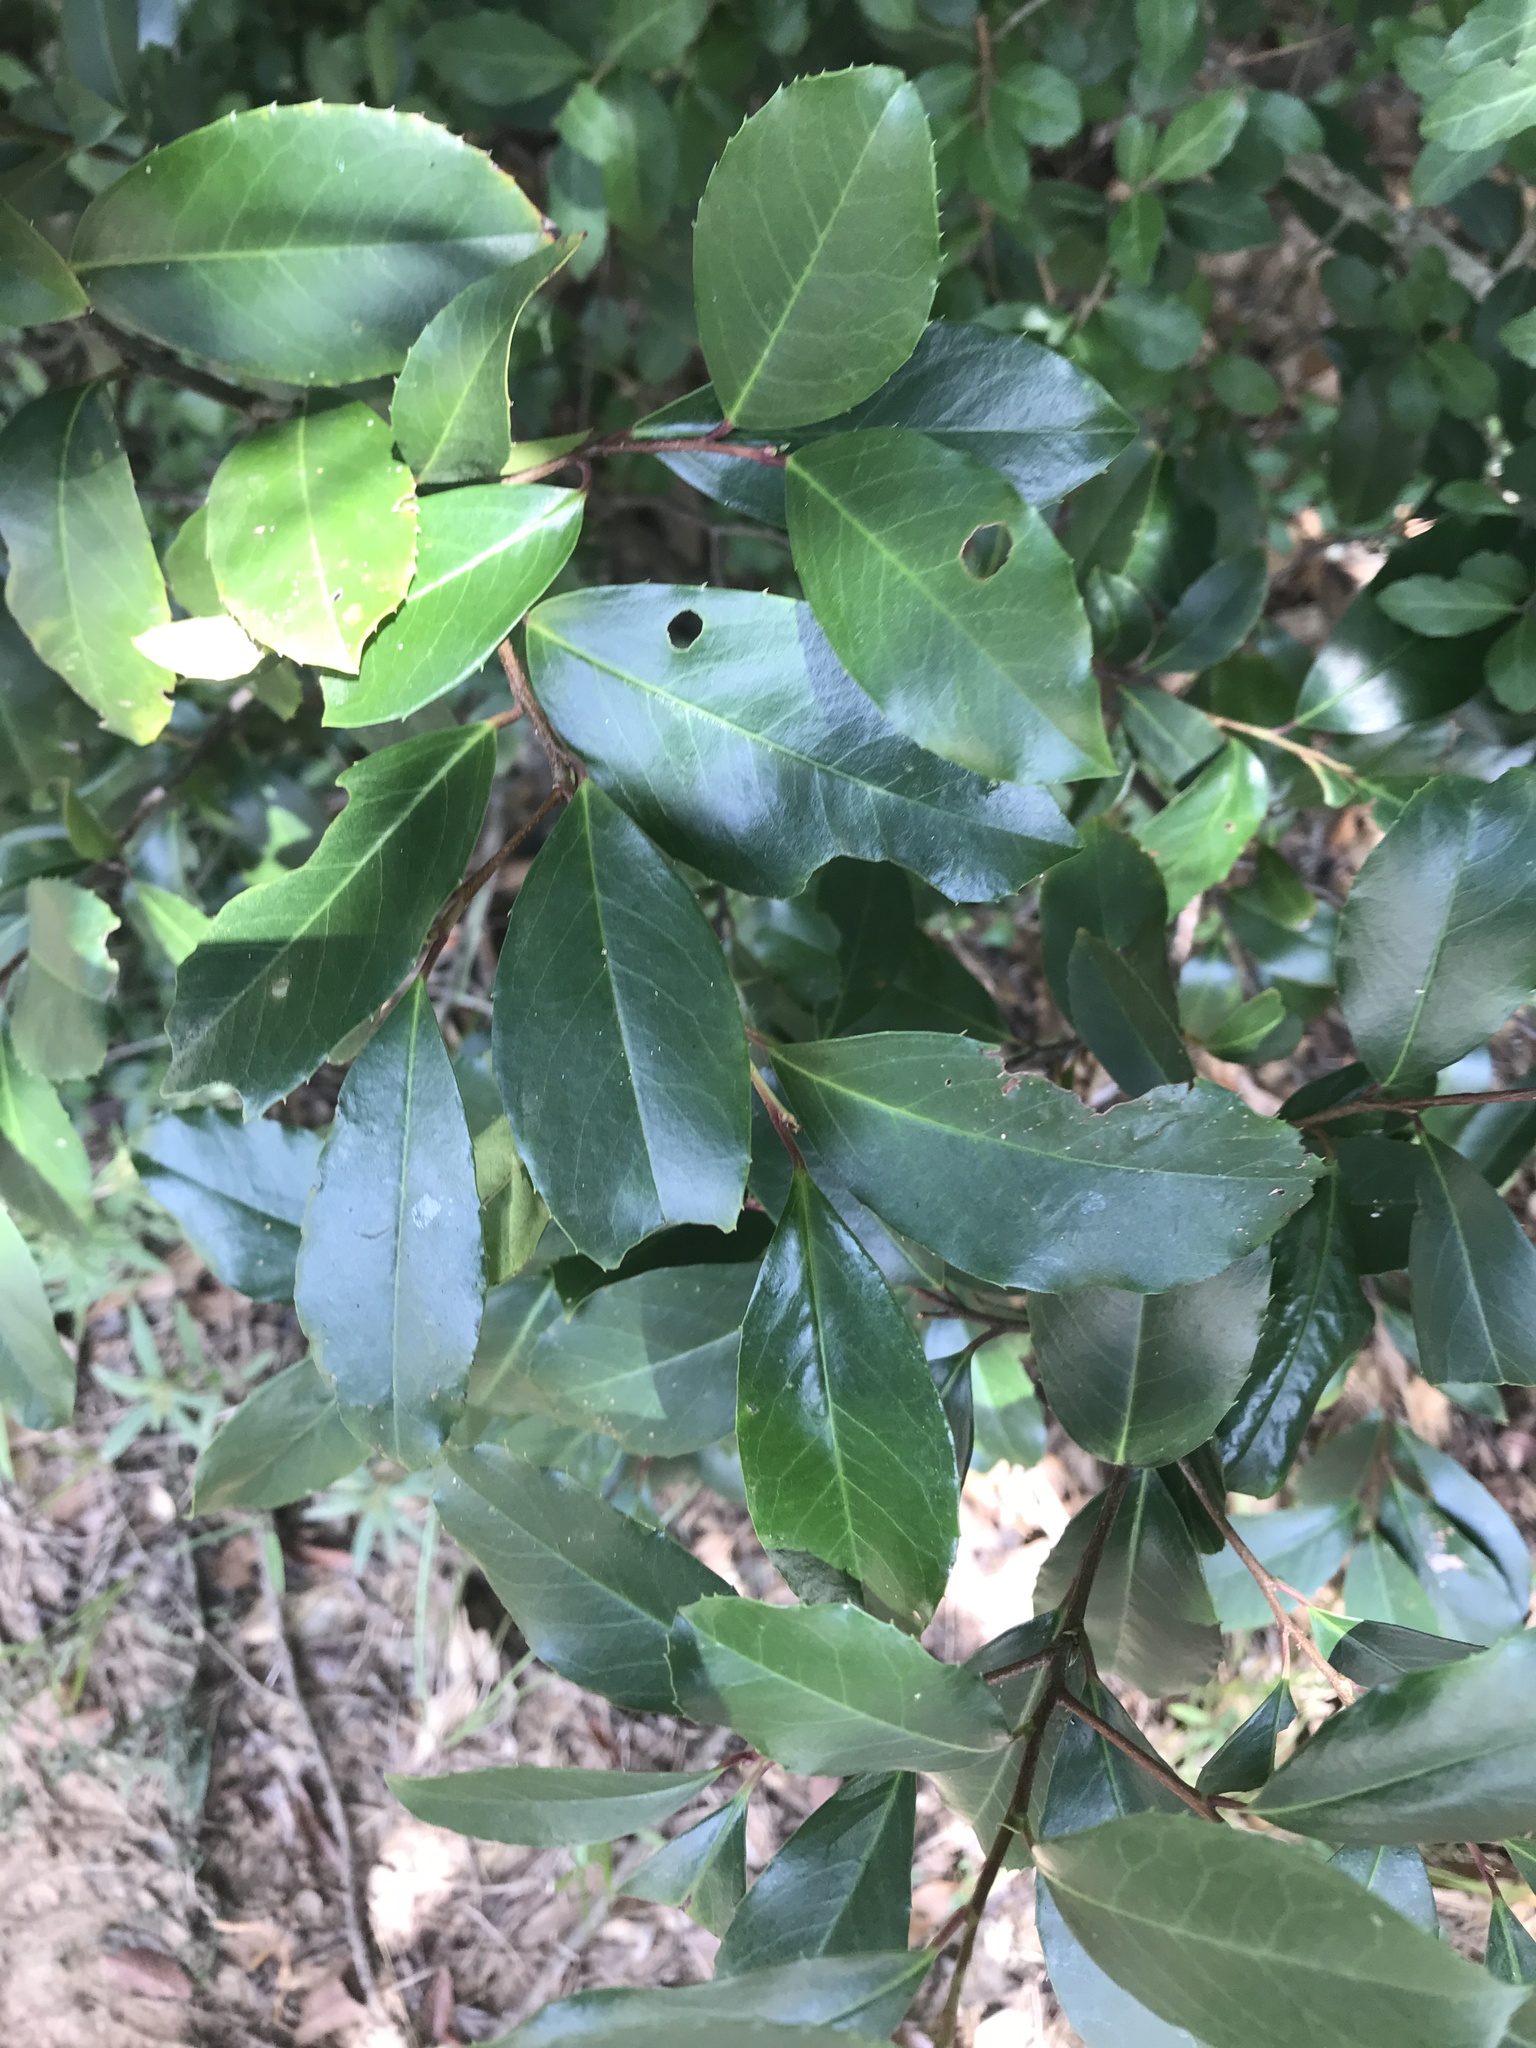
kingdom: Plantae
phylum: Tracheophyta
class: Magnoliopsida
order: Rosales
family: Rosaceae
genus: Prunus
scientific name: Prunus caroliniana
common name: Carolina laurel cherry
